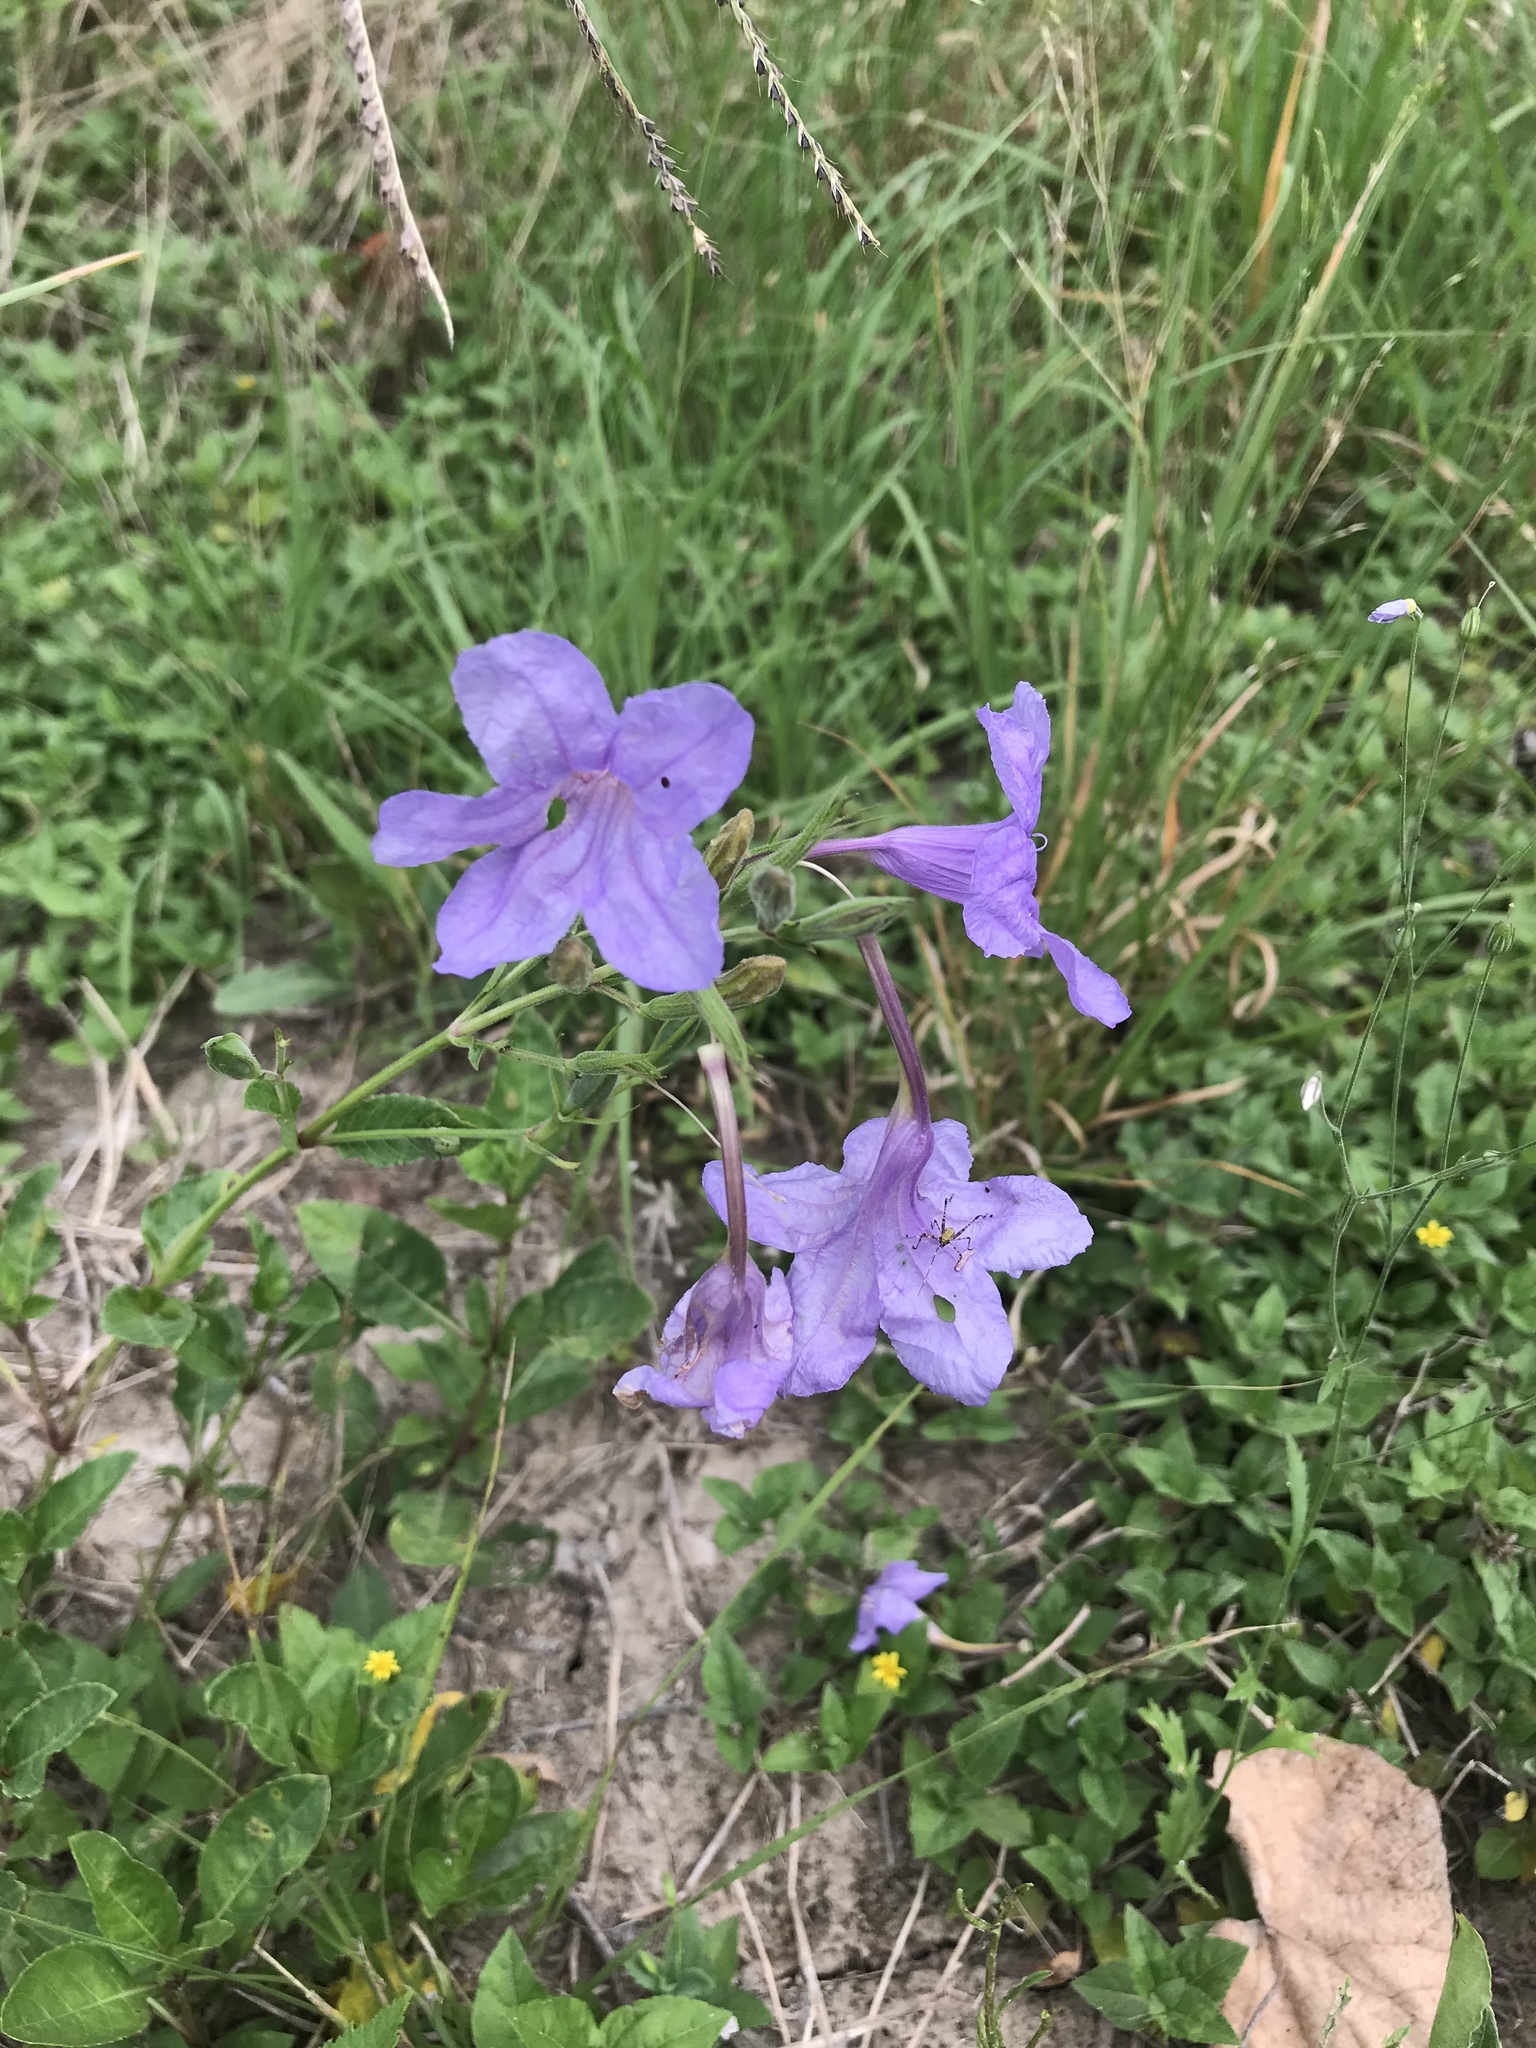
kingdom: Plantae
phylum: Tracheophyta
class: Magnoliopsida
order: Lamiales
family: Acanthaceae
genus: Ruellia
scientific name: Ruellia ciliatiflora
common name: Hairyflower wild petunia
